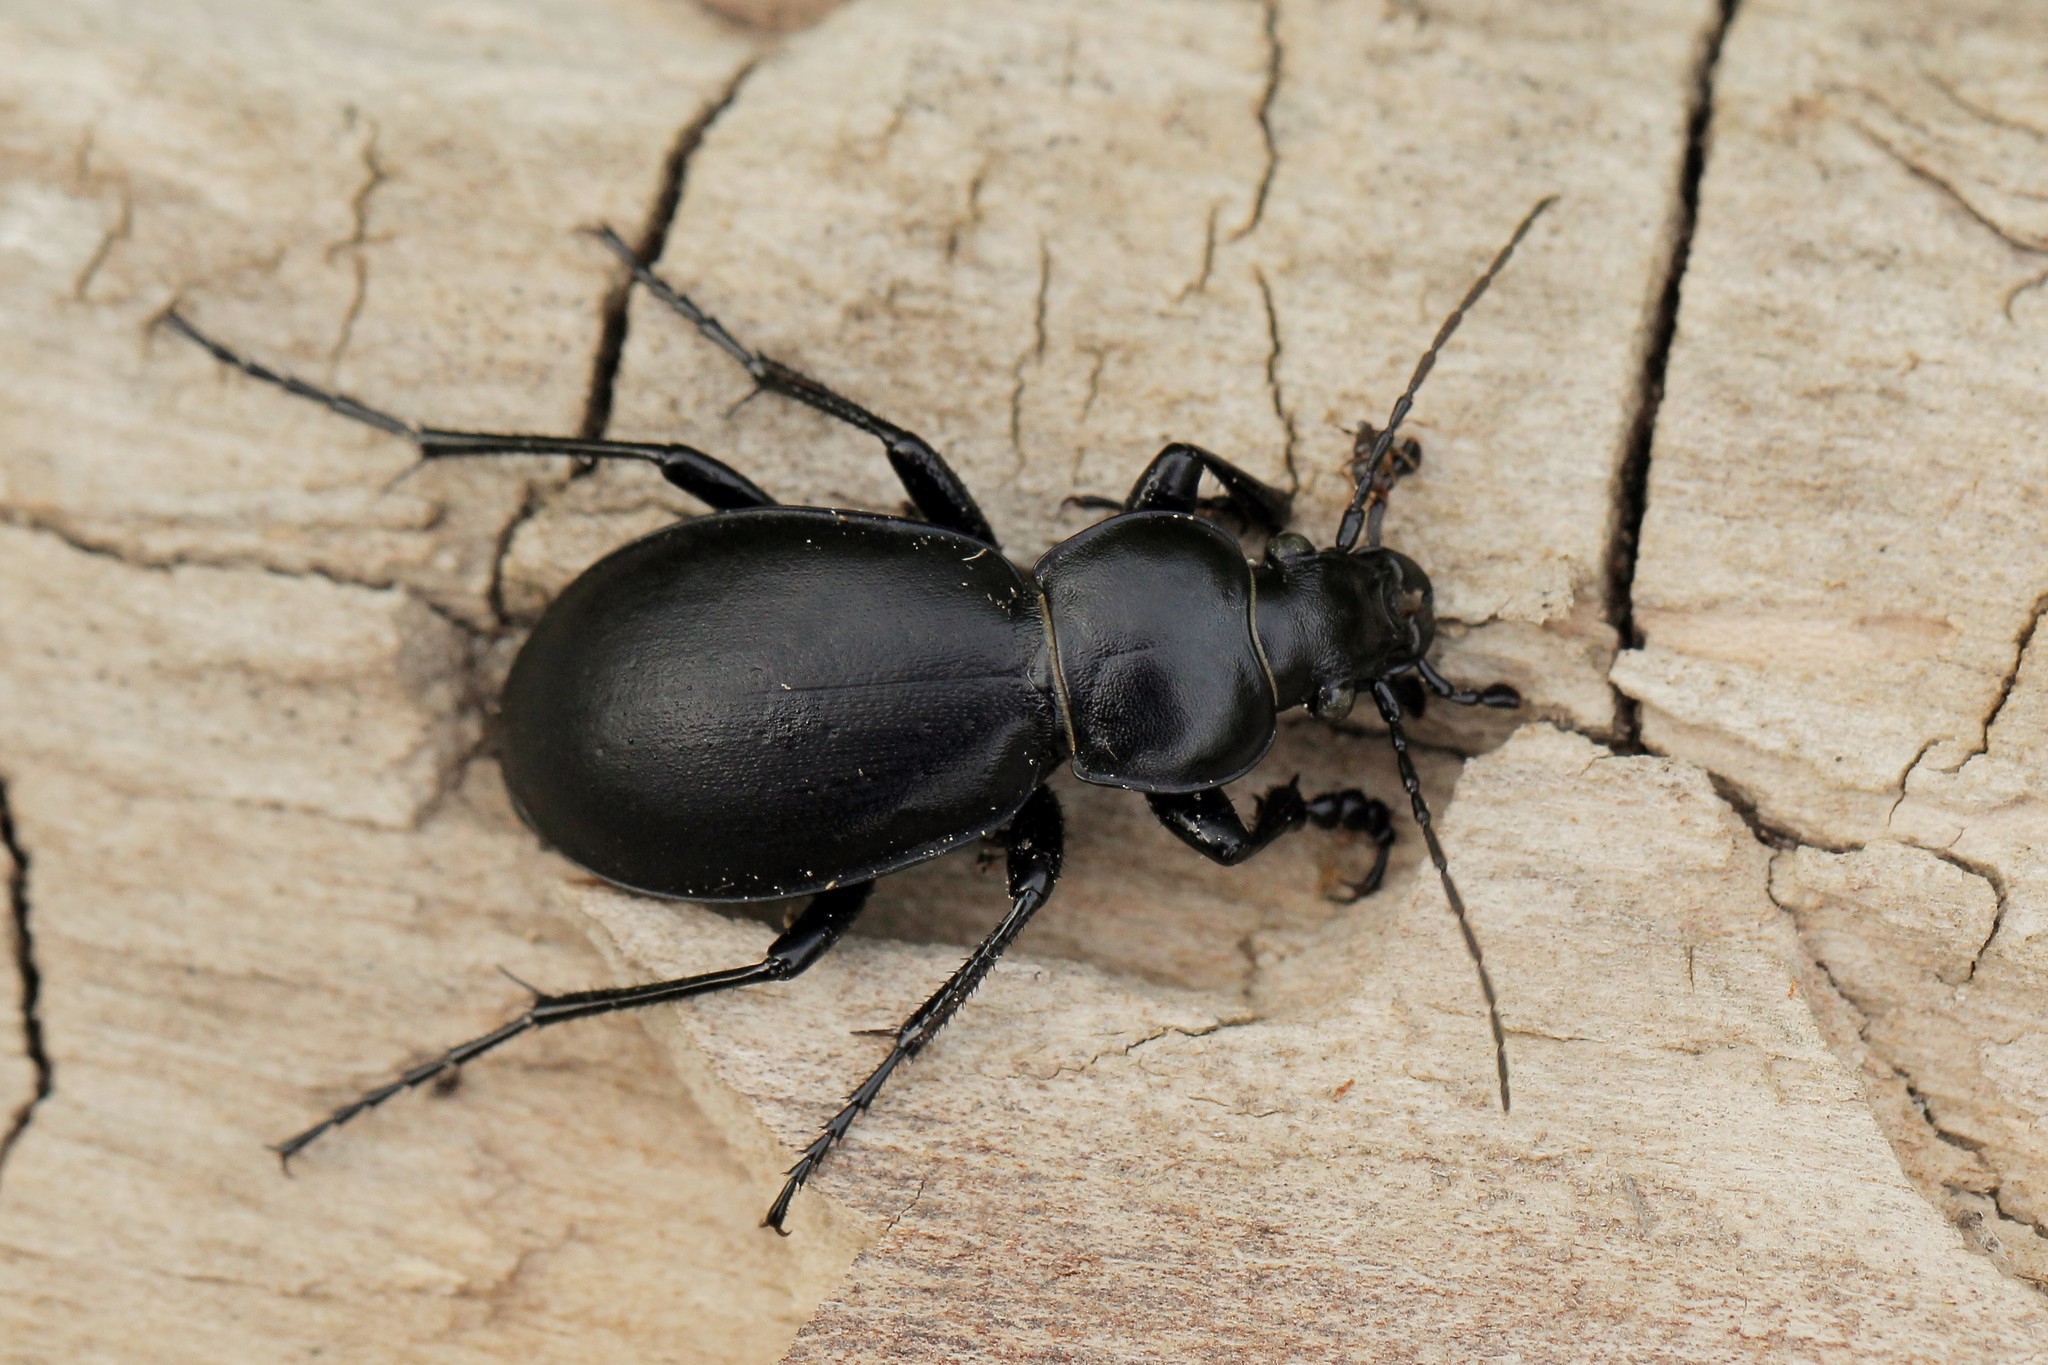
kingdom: Animalia
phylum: Arthropoda
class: Insecta
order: Coleoptera
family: Carabidae
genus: Carabus
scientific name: Carabus bessarabicus
